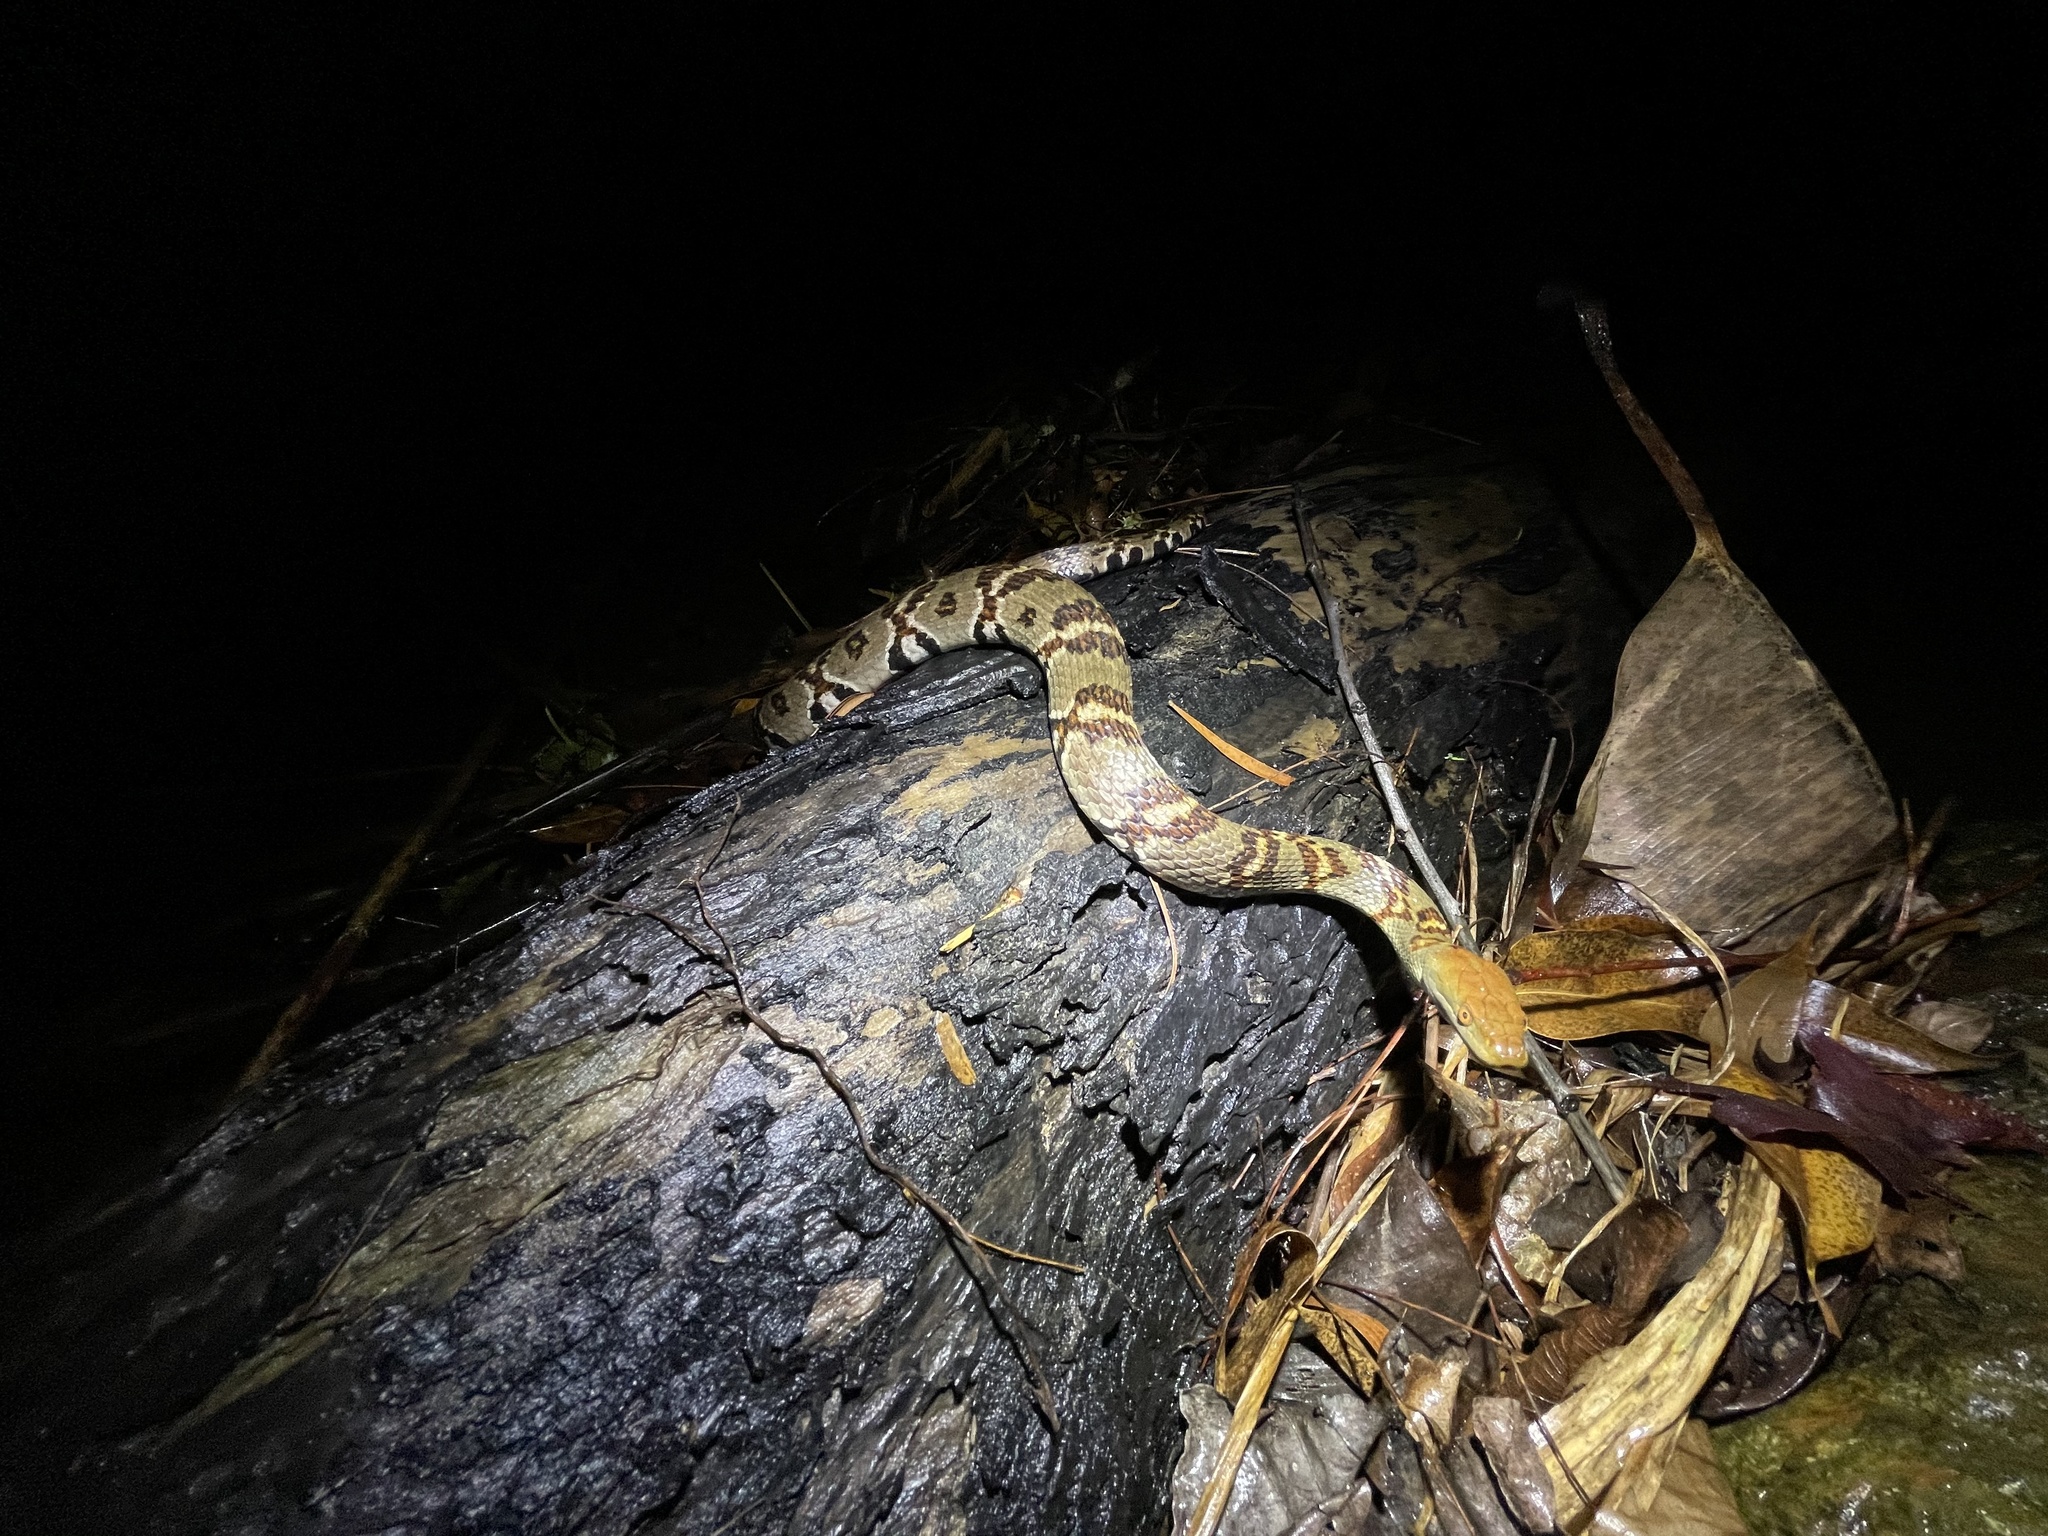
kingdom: Animalia
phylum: Chordata
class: Squamata
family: Colubridae
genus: Trimerodytes
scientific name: Trimerodytes aequifasciatus
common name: Asiatic water snake
